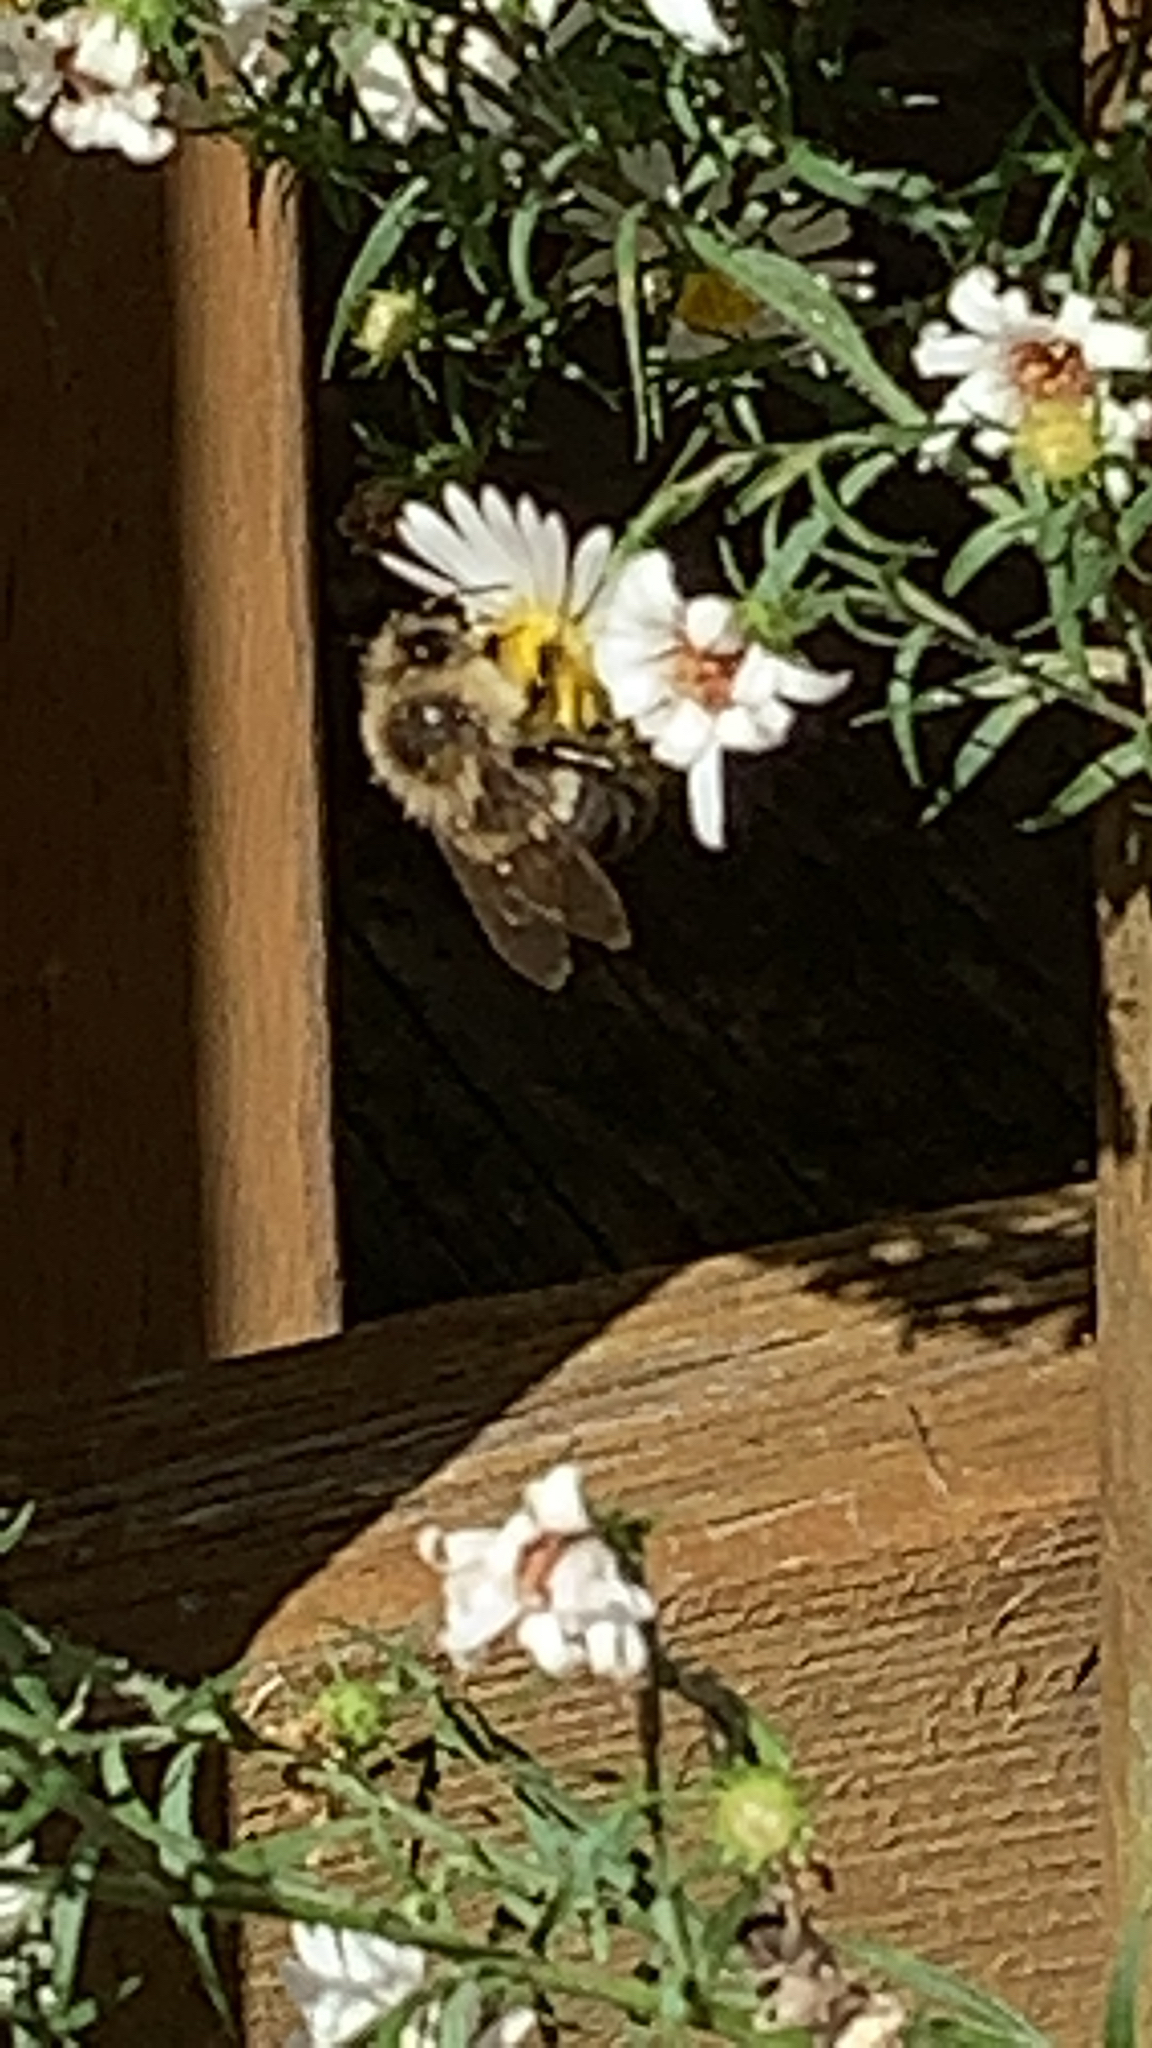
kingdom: Animalia
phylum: Arthropoda
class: Insecta
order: Hymenoptera
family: Apidae
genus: Bombus
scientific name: Bombus impatiens
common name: Common eastern bumble bee
